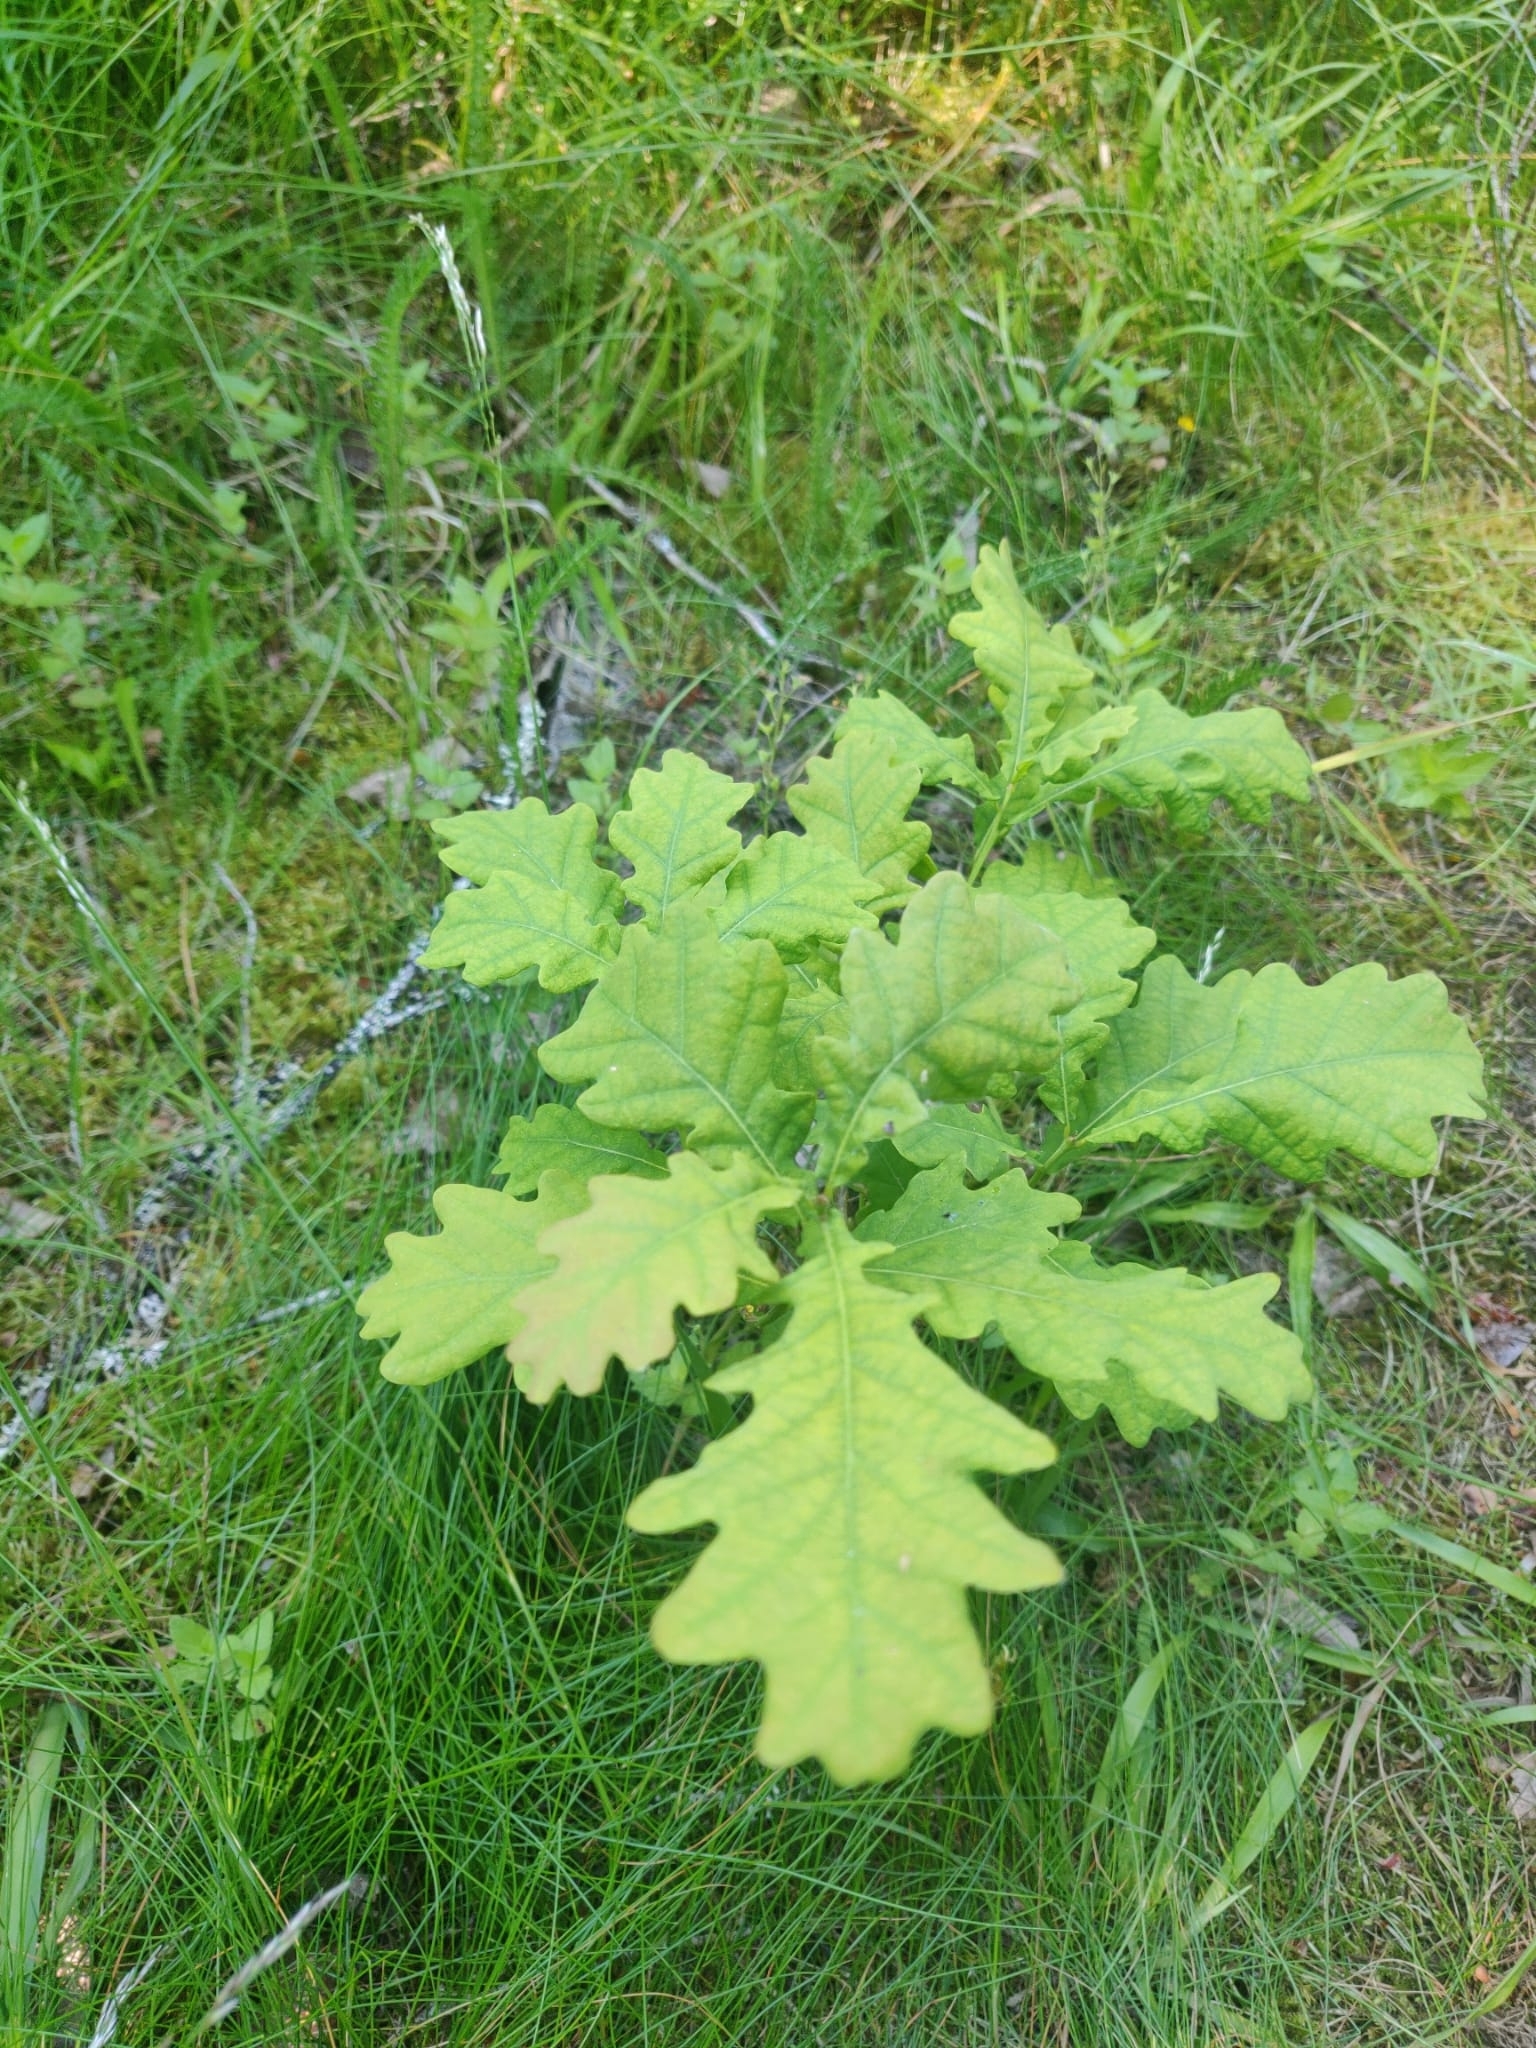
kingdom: Plantae
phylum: Tracheophyta
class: Magnoliopsida
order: Fagales
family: Fagaceae
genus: Quercus
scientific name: Quercus robur
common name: Pedunculate oak
